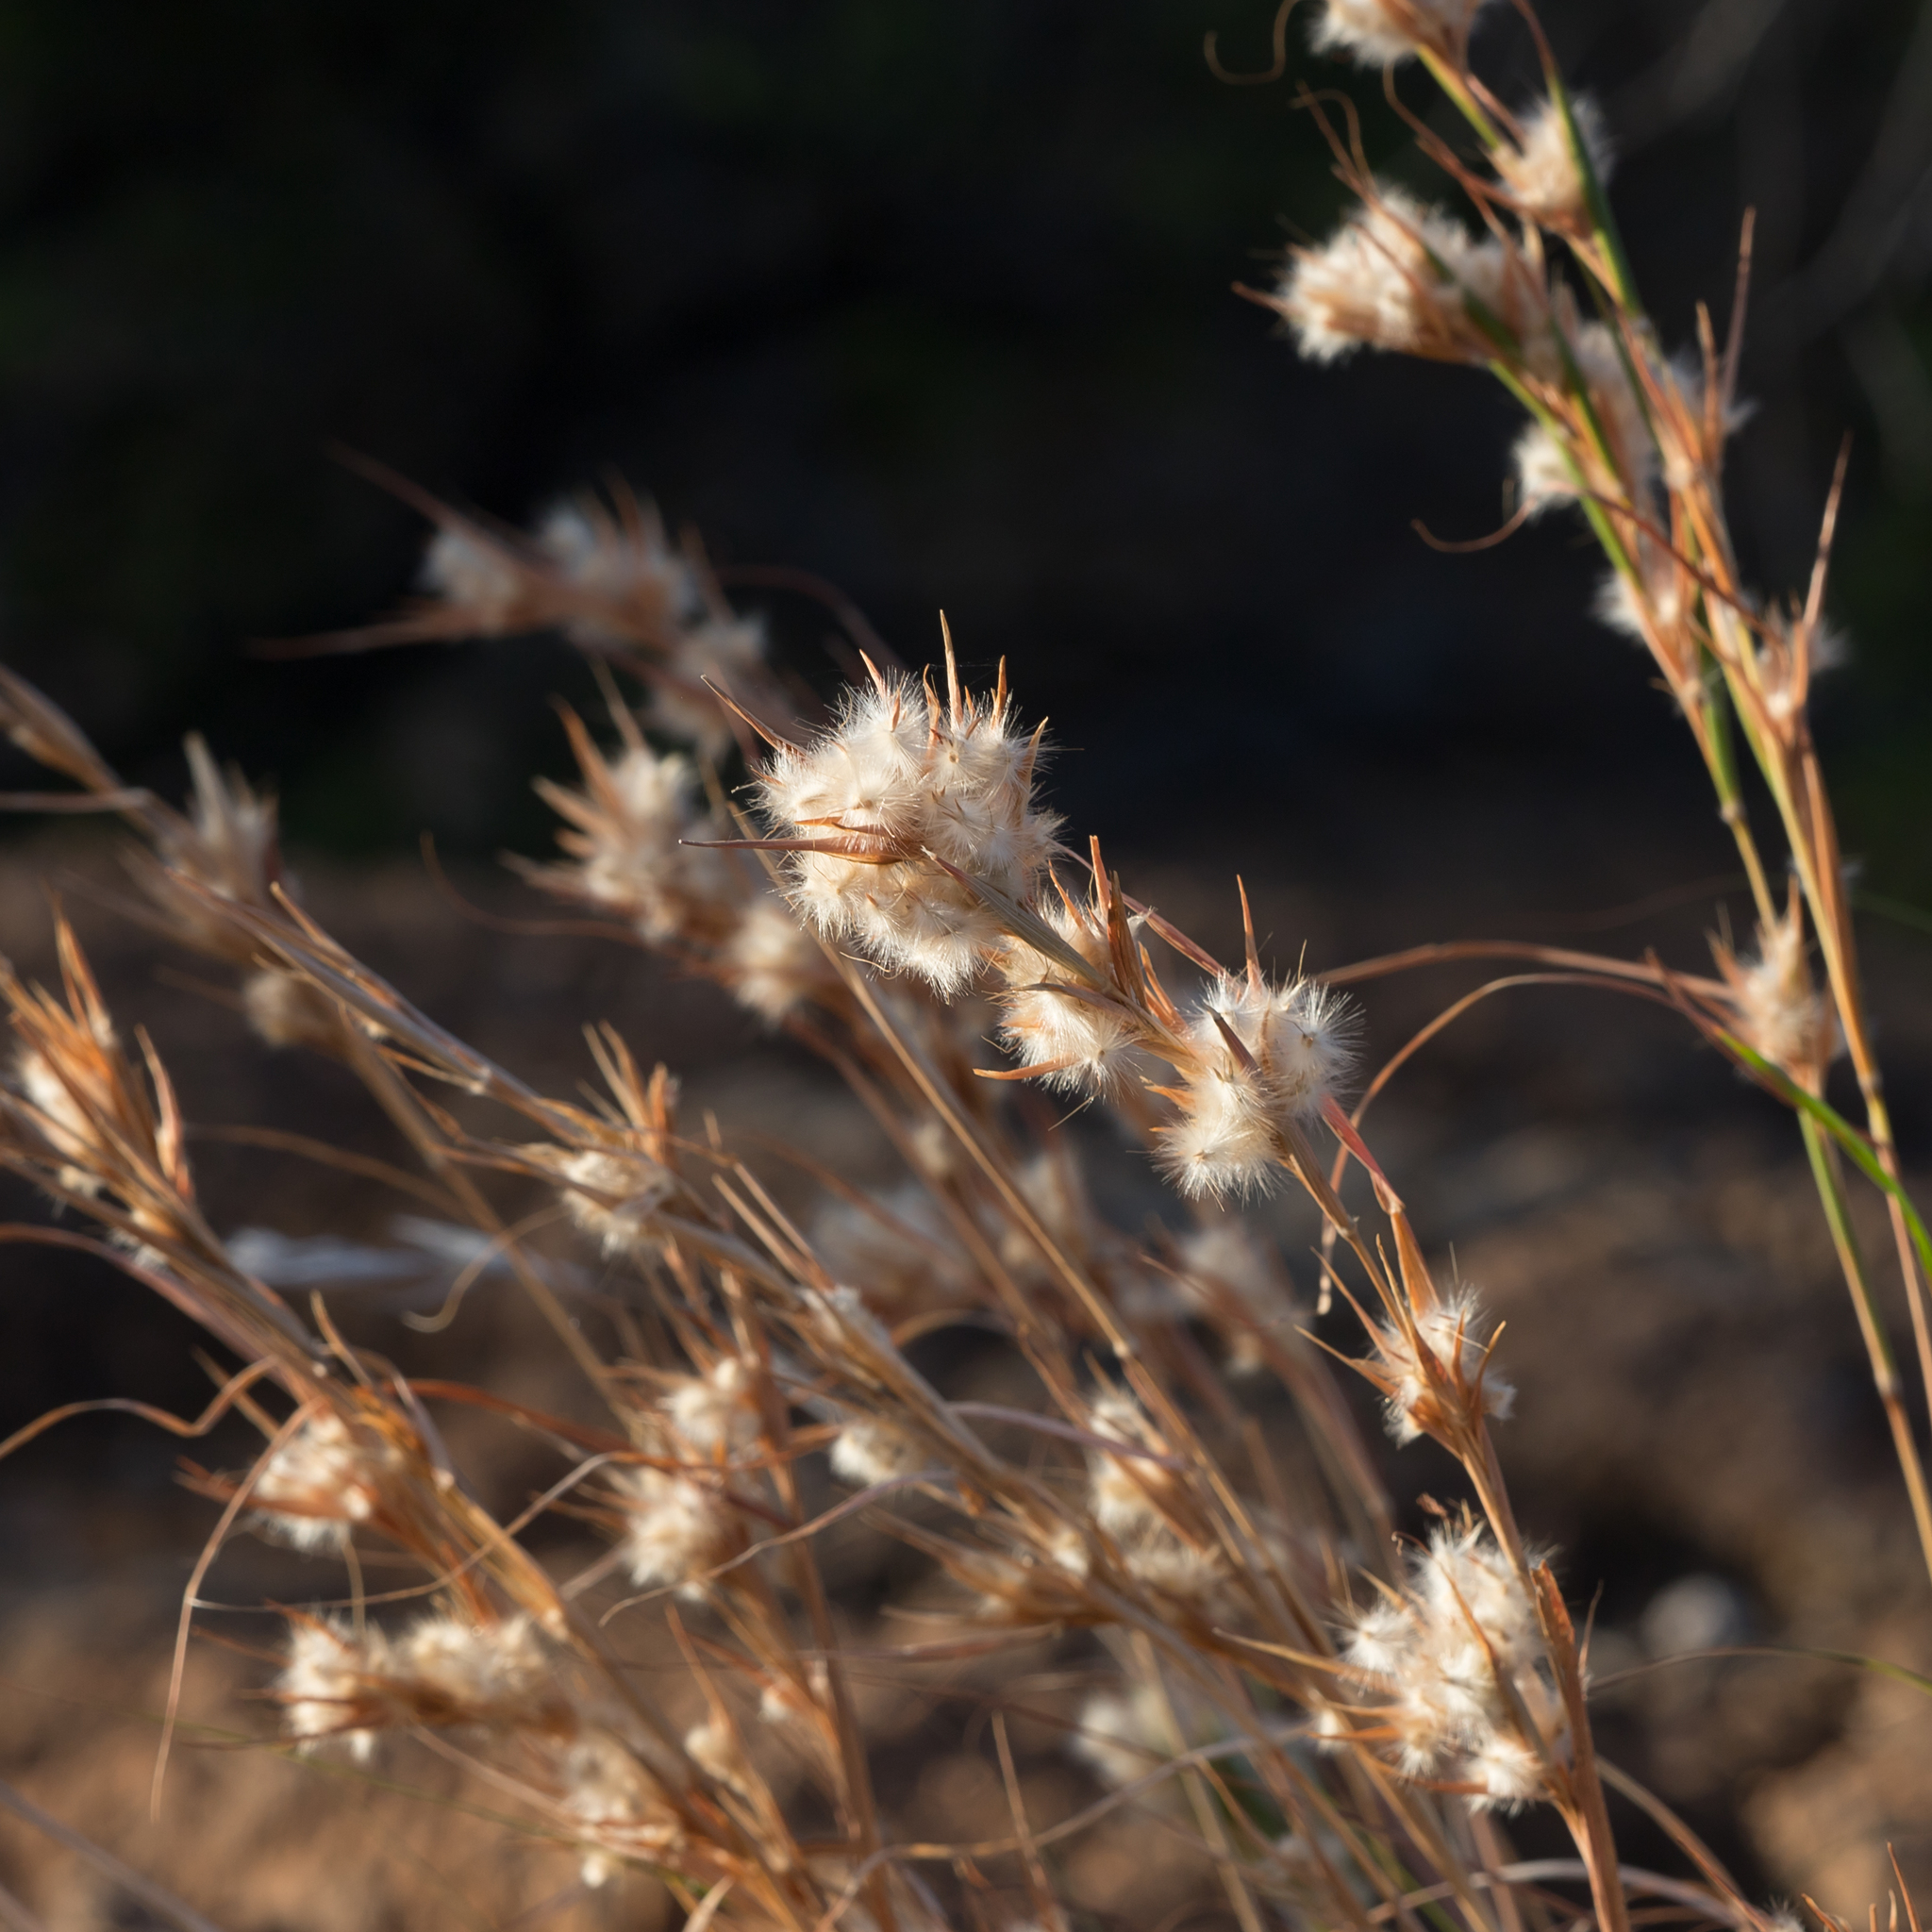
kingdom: Plantae
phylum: Tracheophyta
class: Liliopsida
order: Poales
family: Poaceae
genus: Cymbopogon
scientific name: Cymbopogon obtectus
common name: Silky heads
